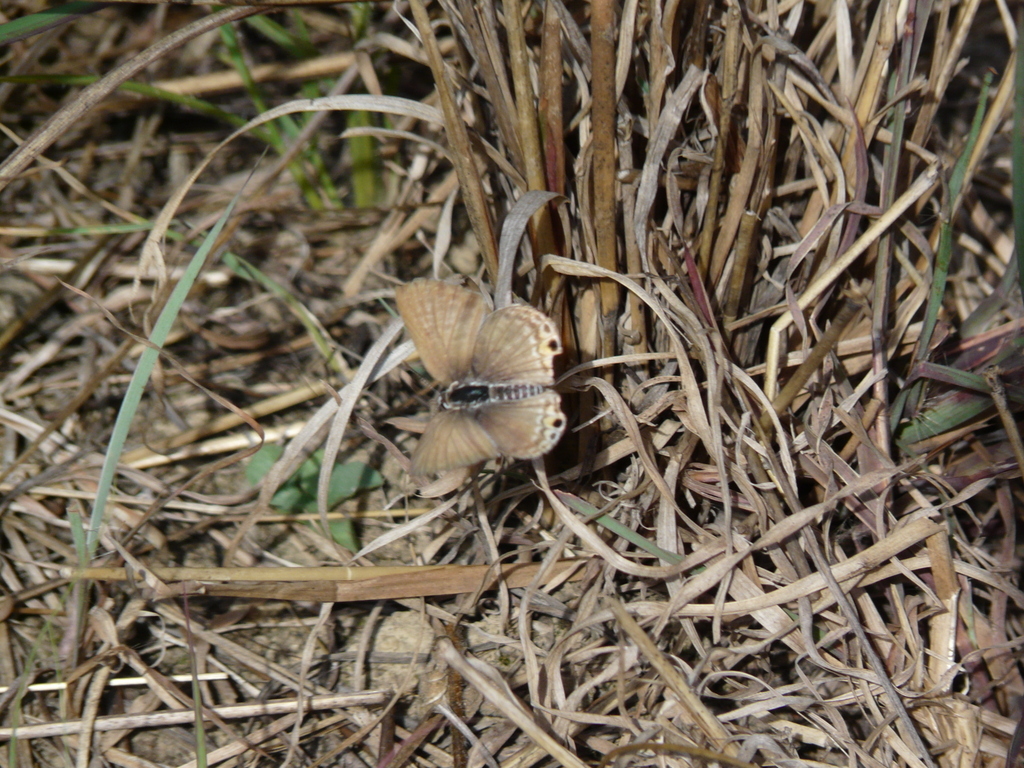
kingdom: Animalia
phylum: Arthropoda
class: Insecta
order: Lepidoptera
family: Lycaenidae
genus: Anthene
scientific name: Anthene amarah
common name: Black-striped hairtail
